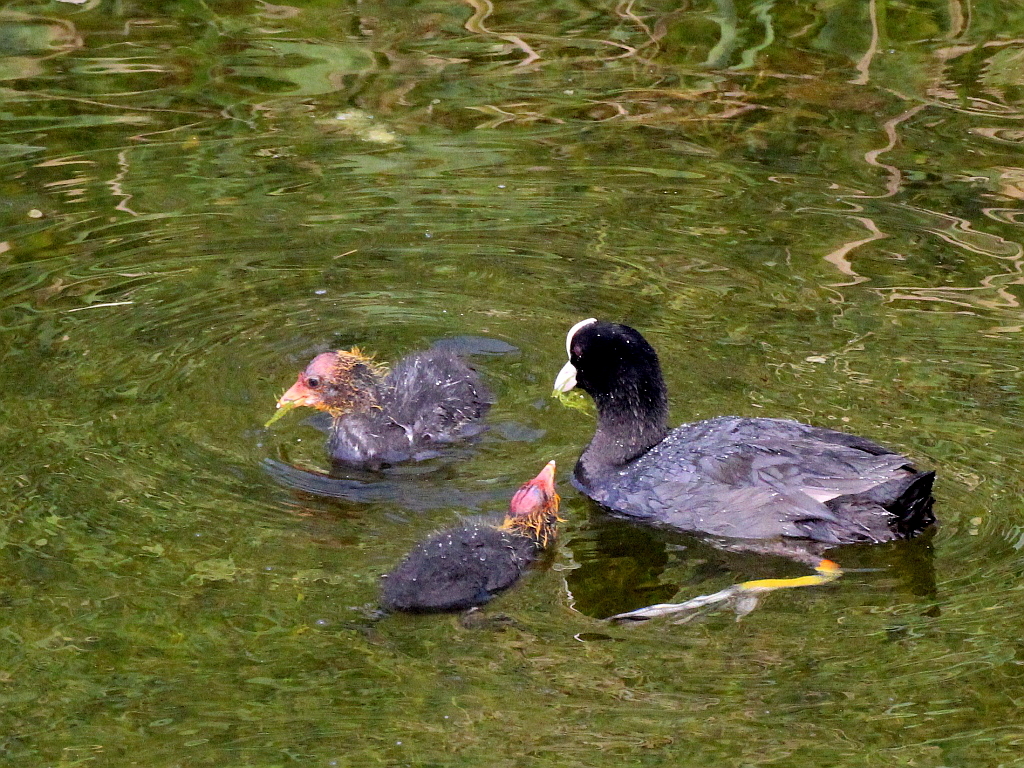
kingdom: Animalia
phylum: Chordata
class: Aves
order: Gruiformes
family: Rallidae
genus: Fulica
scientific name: Fulica atra
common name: Eurasian coot
